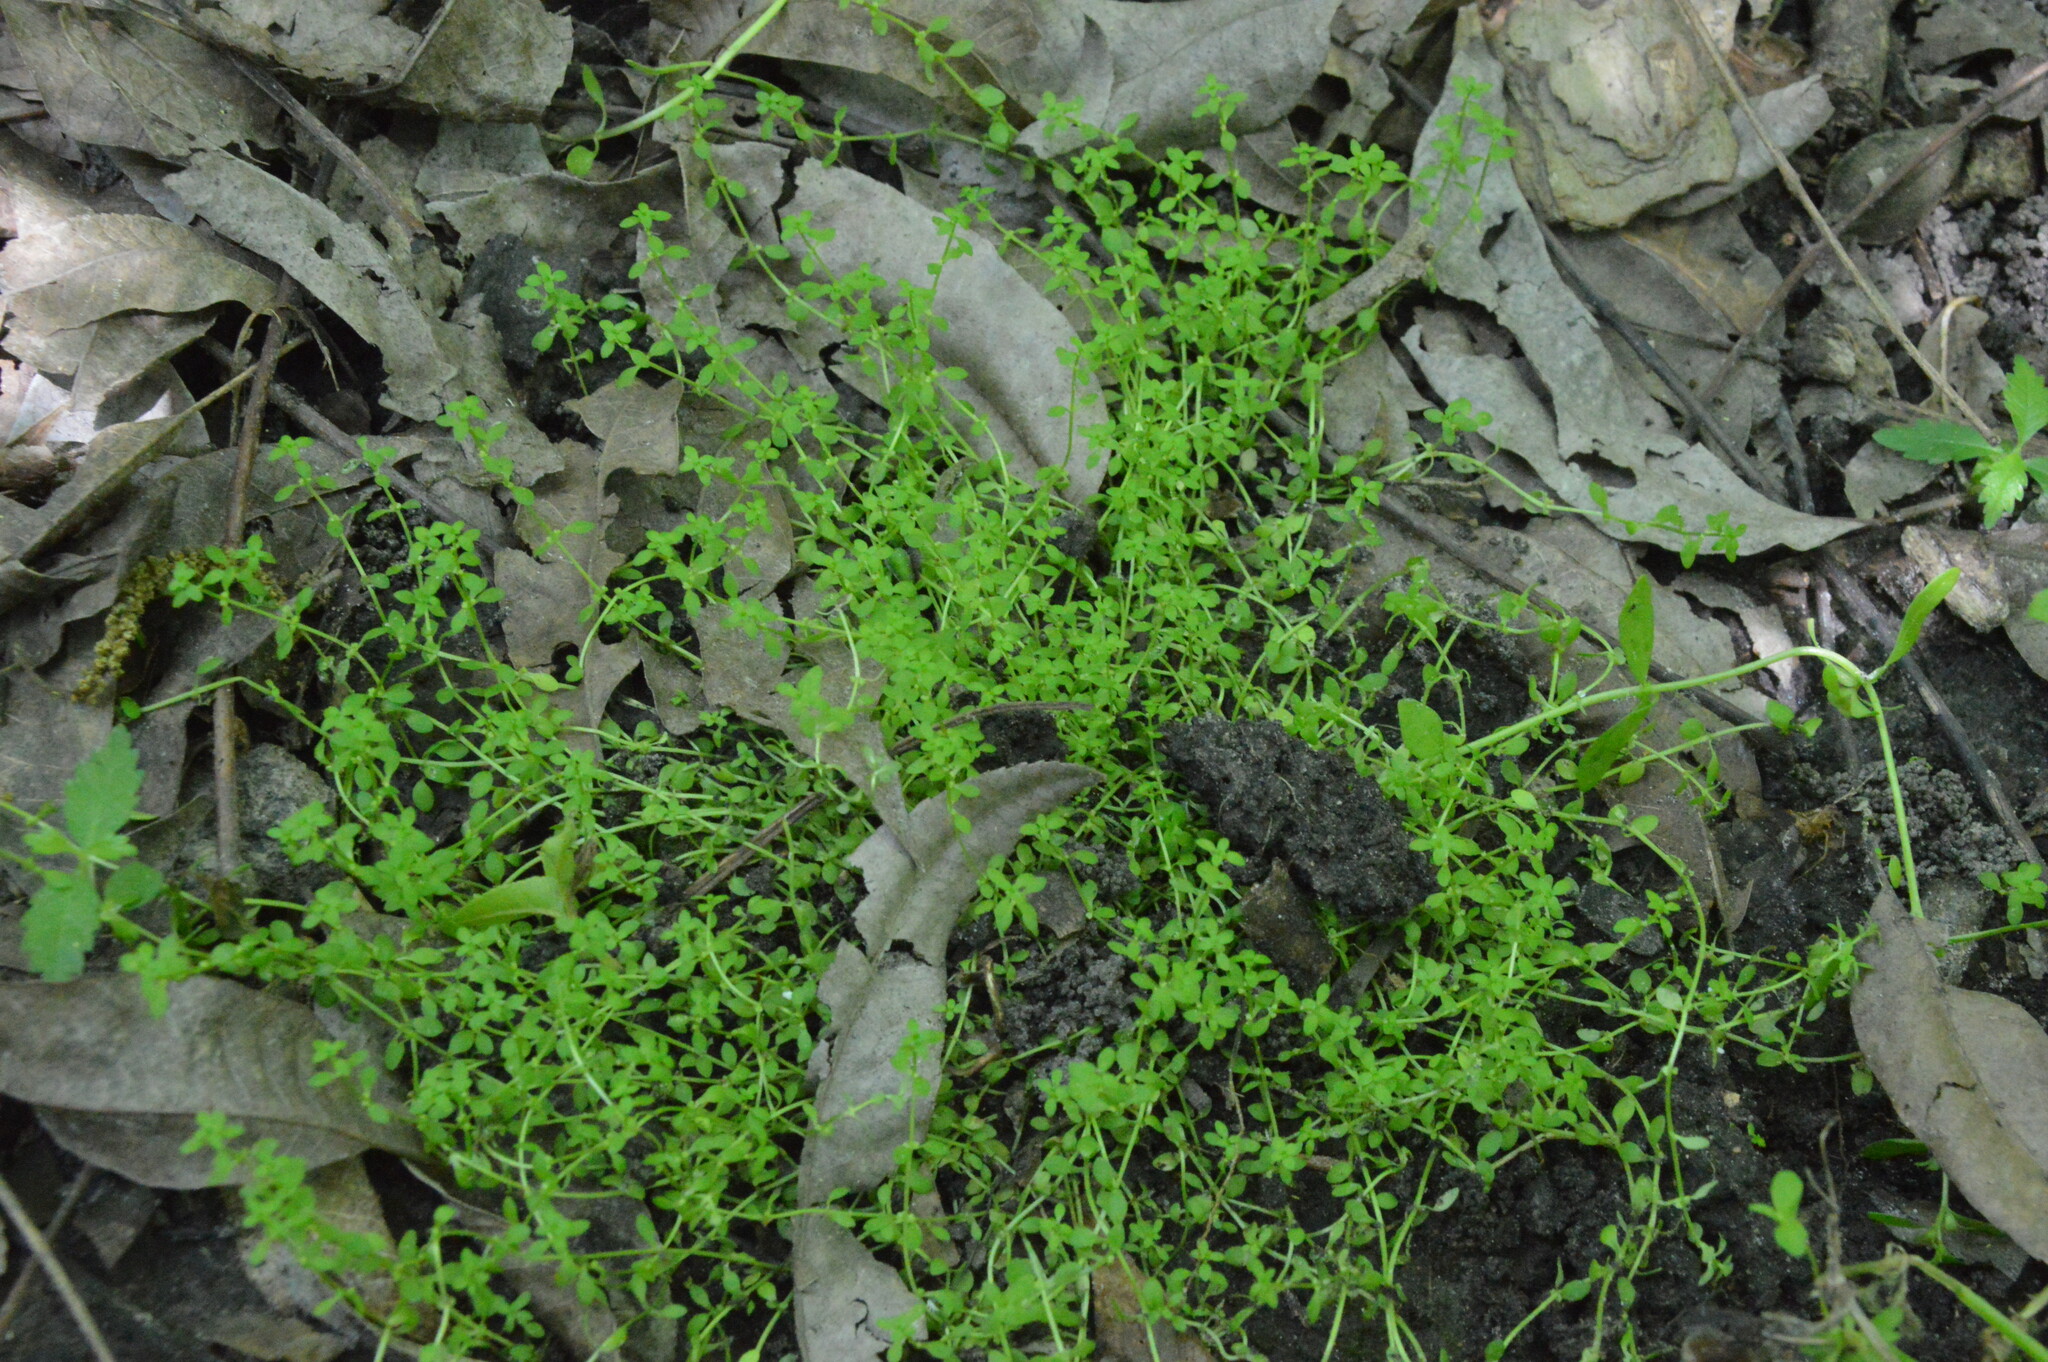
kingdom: Plantae
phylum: Tracheophyta
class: Magnoliopsida
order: Lamiales
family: Plantaginaceae
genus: Callitriche
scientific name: Callitriche peploides
